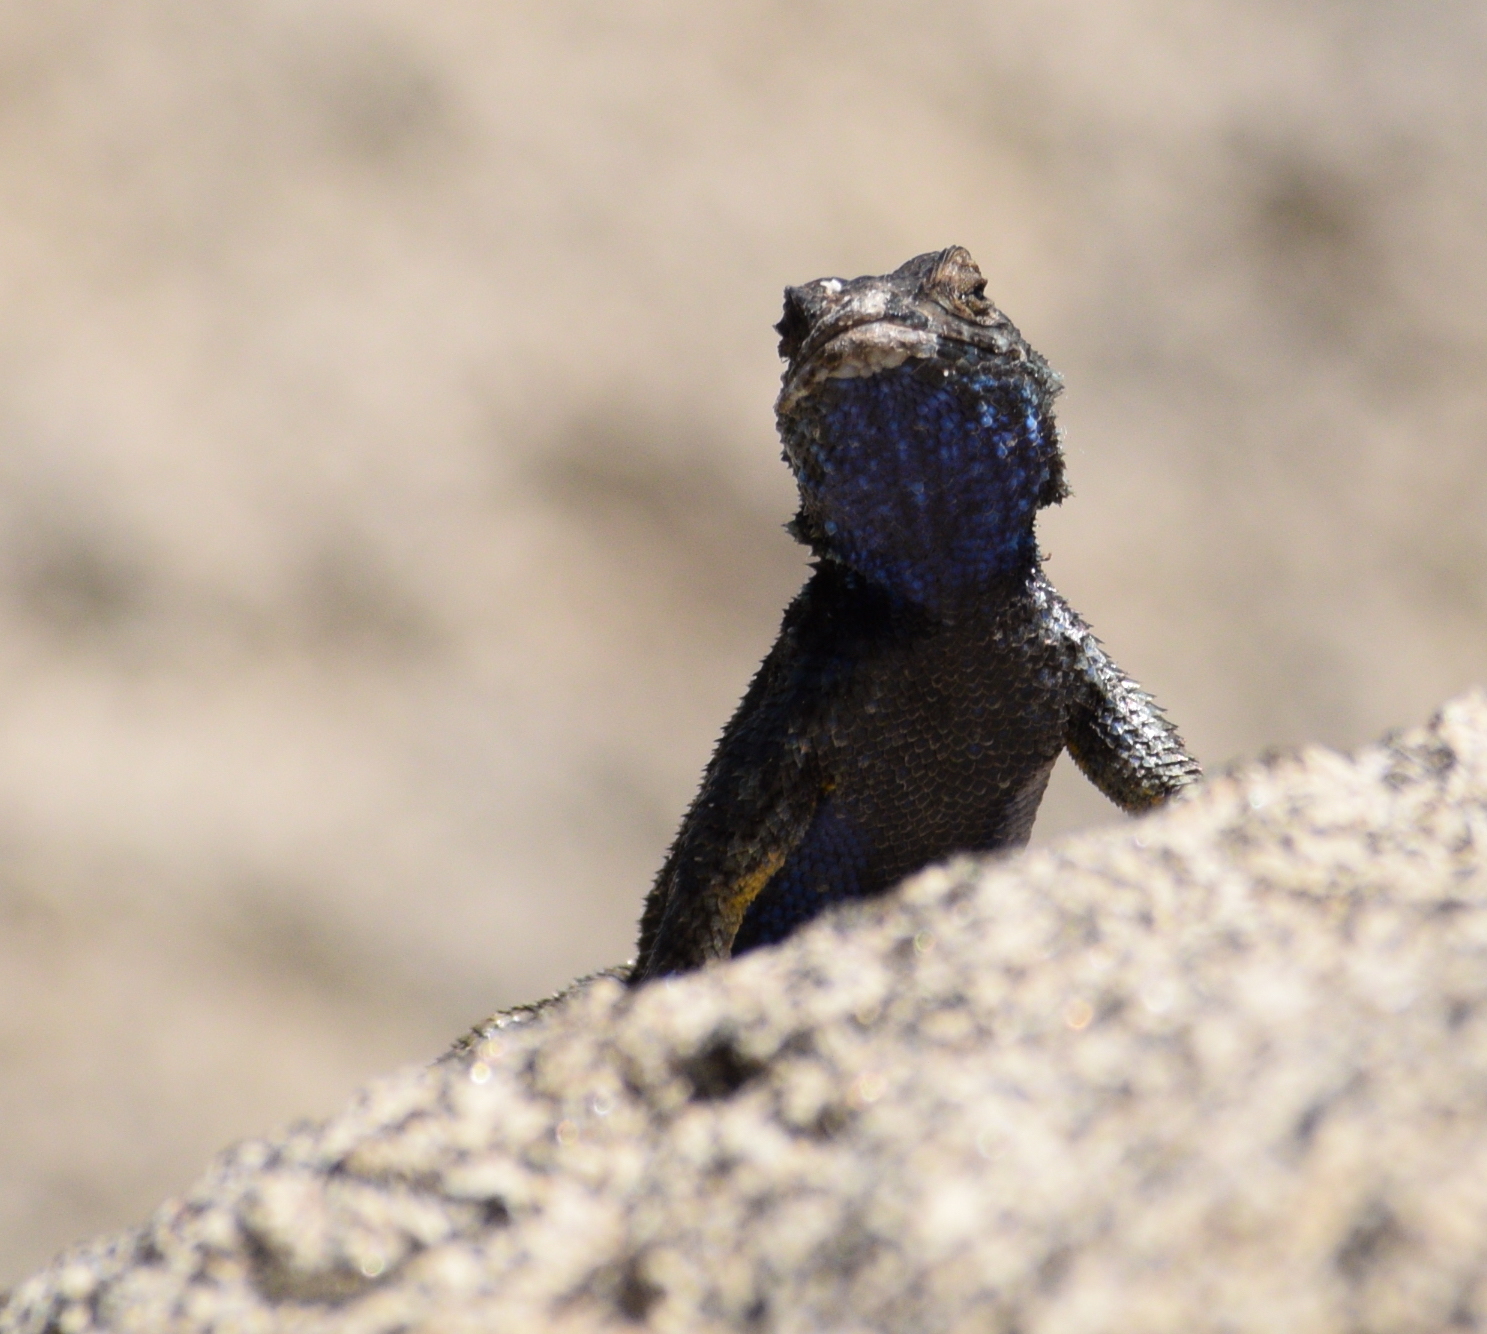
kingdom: Animalia
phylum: Chordata
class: Squamata
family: Phrynosomatidae
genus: Sceloporus
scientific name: Sceloporus occidentalis
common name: Western fence lizard
